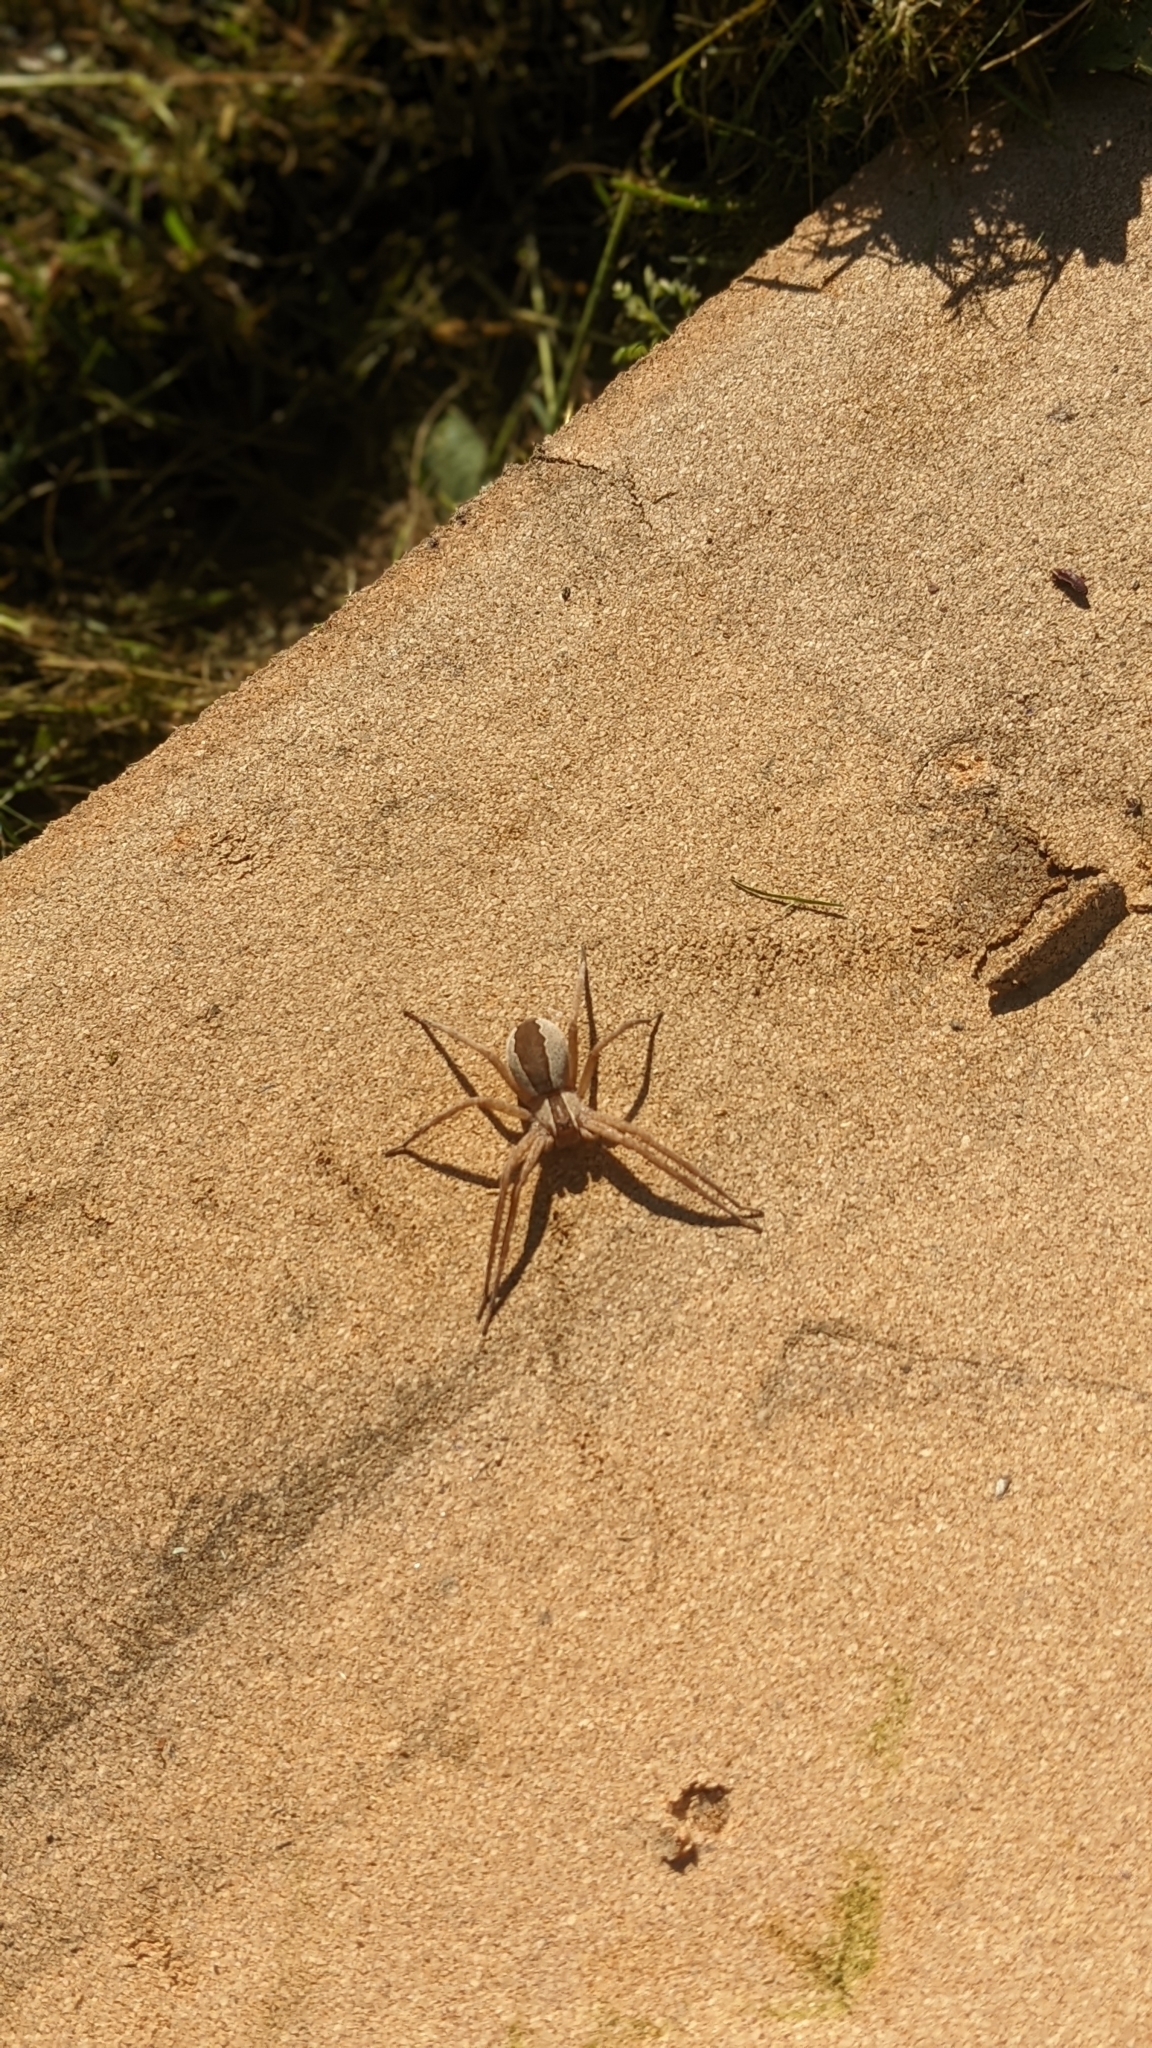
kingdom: Animalia
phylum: Arthropoda
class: Arachnida
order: Araneae
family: Pisauridae
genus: Pisaurina
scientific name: Pisaurina mira
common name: American nursery web spider
